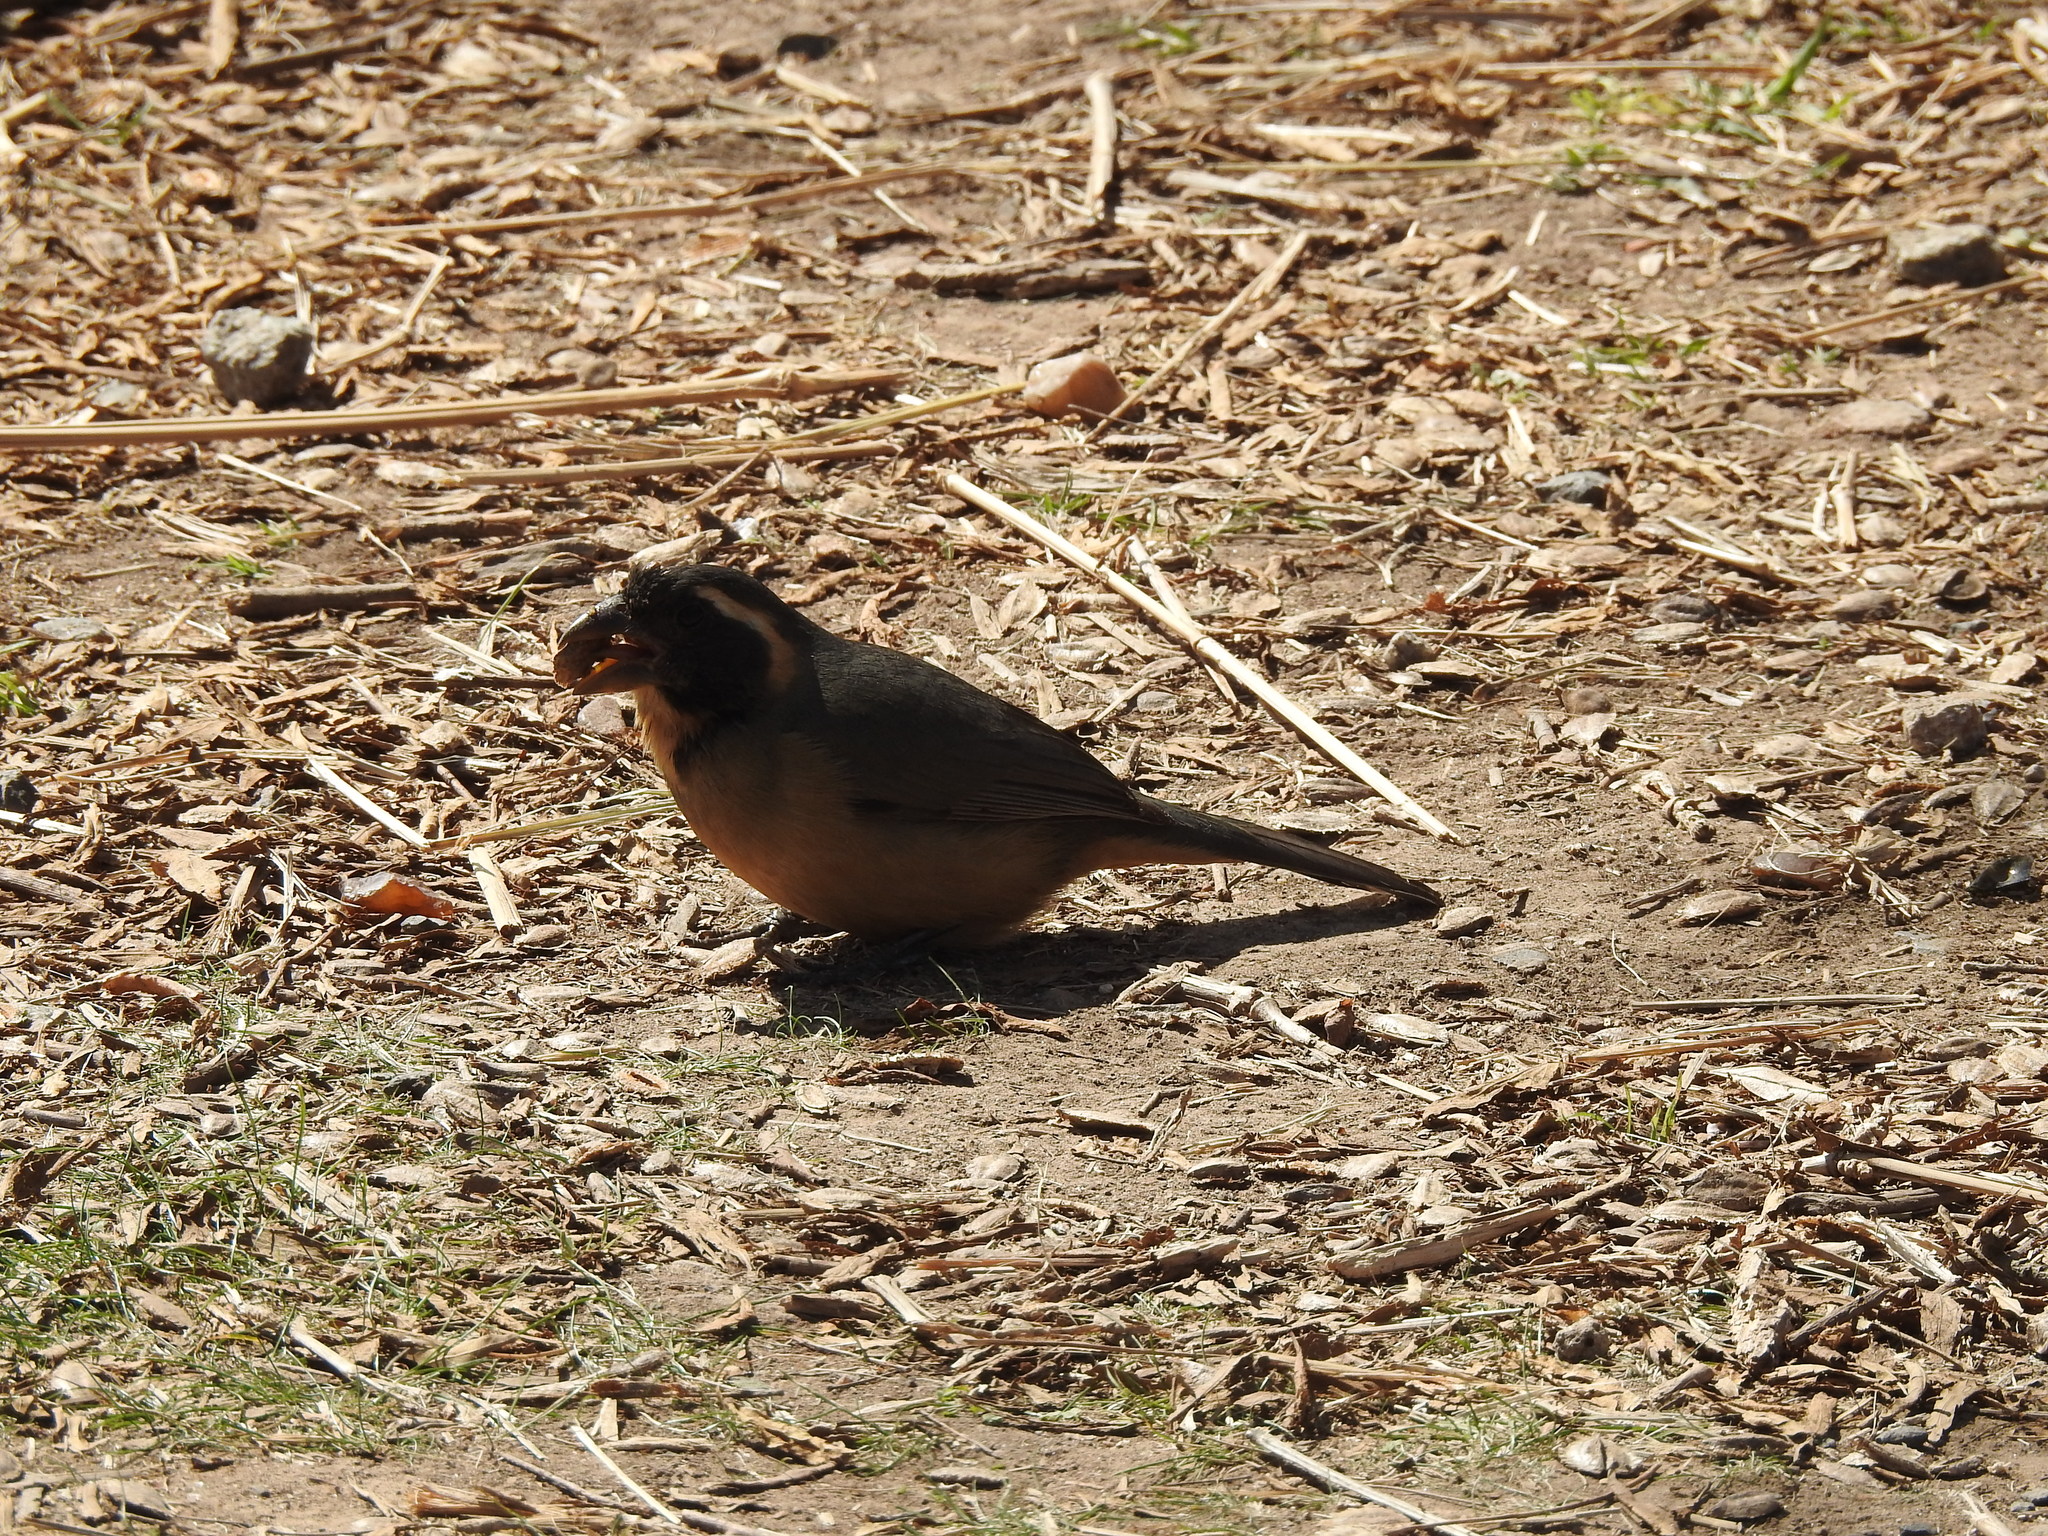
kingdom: Animalia
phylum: Chordata
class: Aves
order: Passeriformes
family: Thraupidae
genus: Saltator
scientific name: Saltator aurantiirostris
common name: Golden-billed saltator
